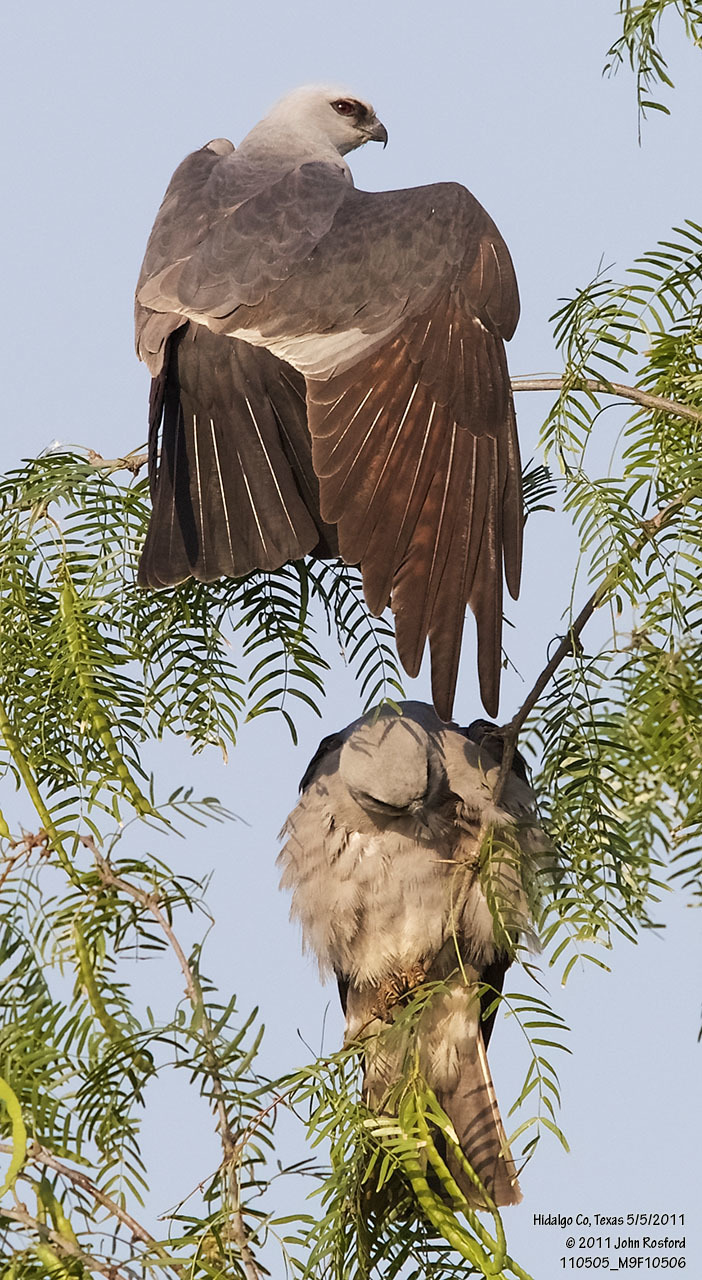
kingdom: Animalia
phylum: Chordata
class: Aves
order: Accipitriformes
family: Accipitridae
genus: Ictinia
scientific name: Ictinia mississippiensis
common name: Mississippi kite
